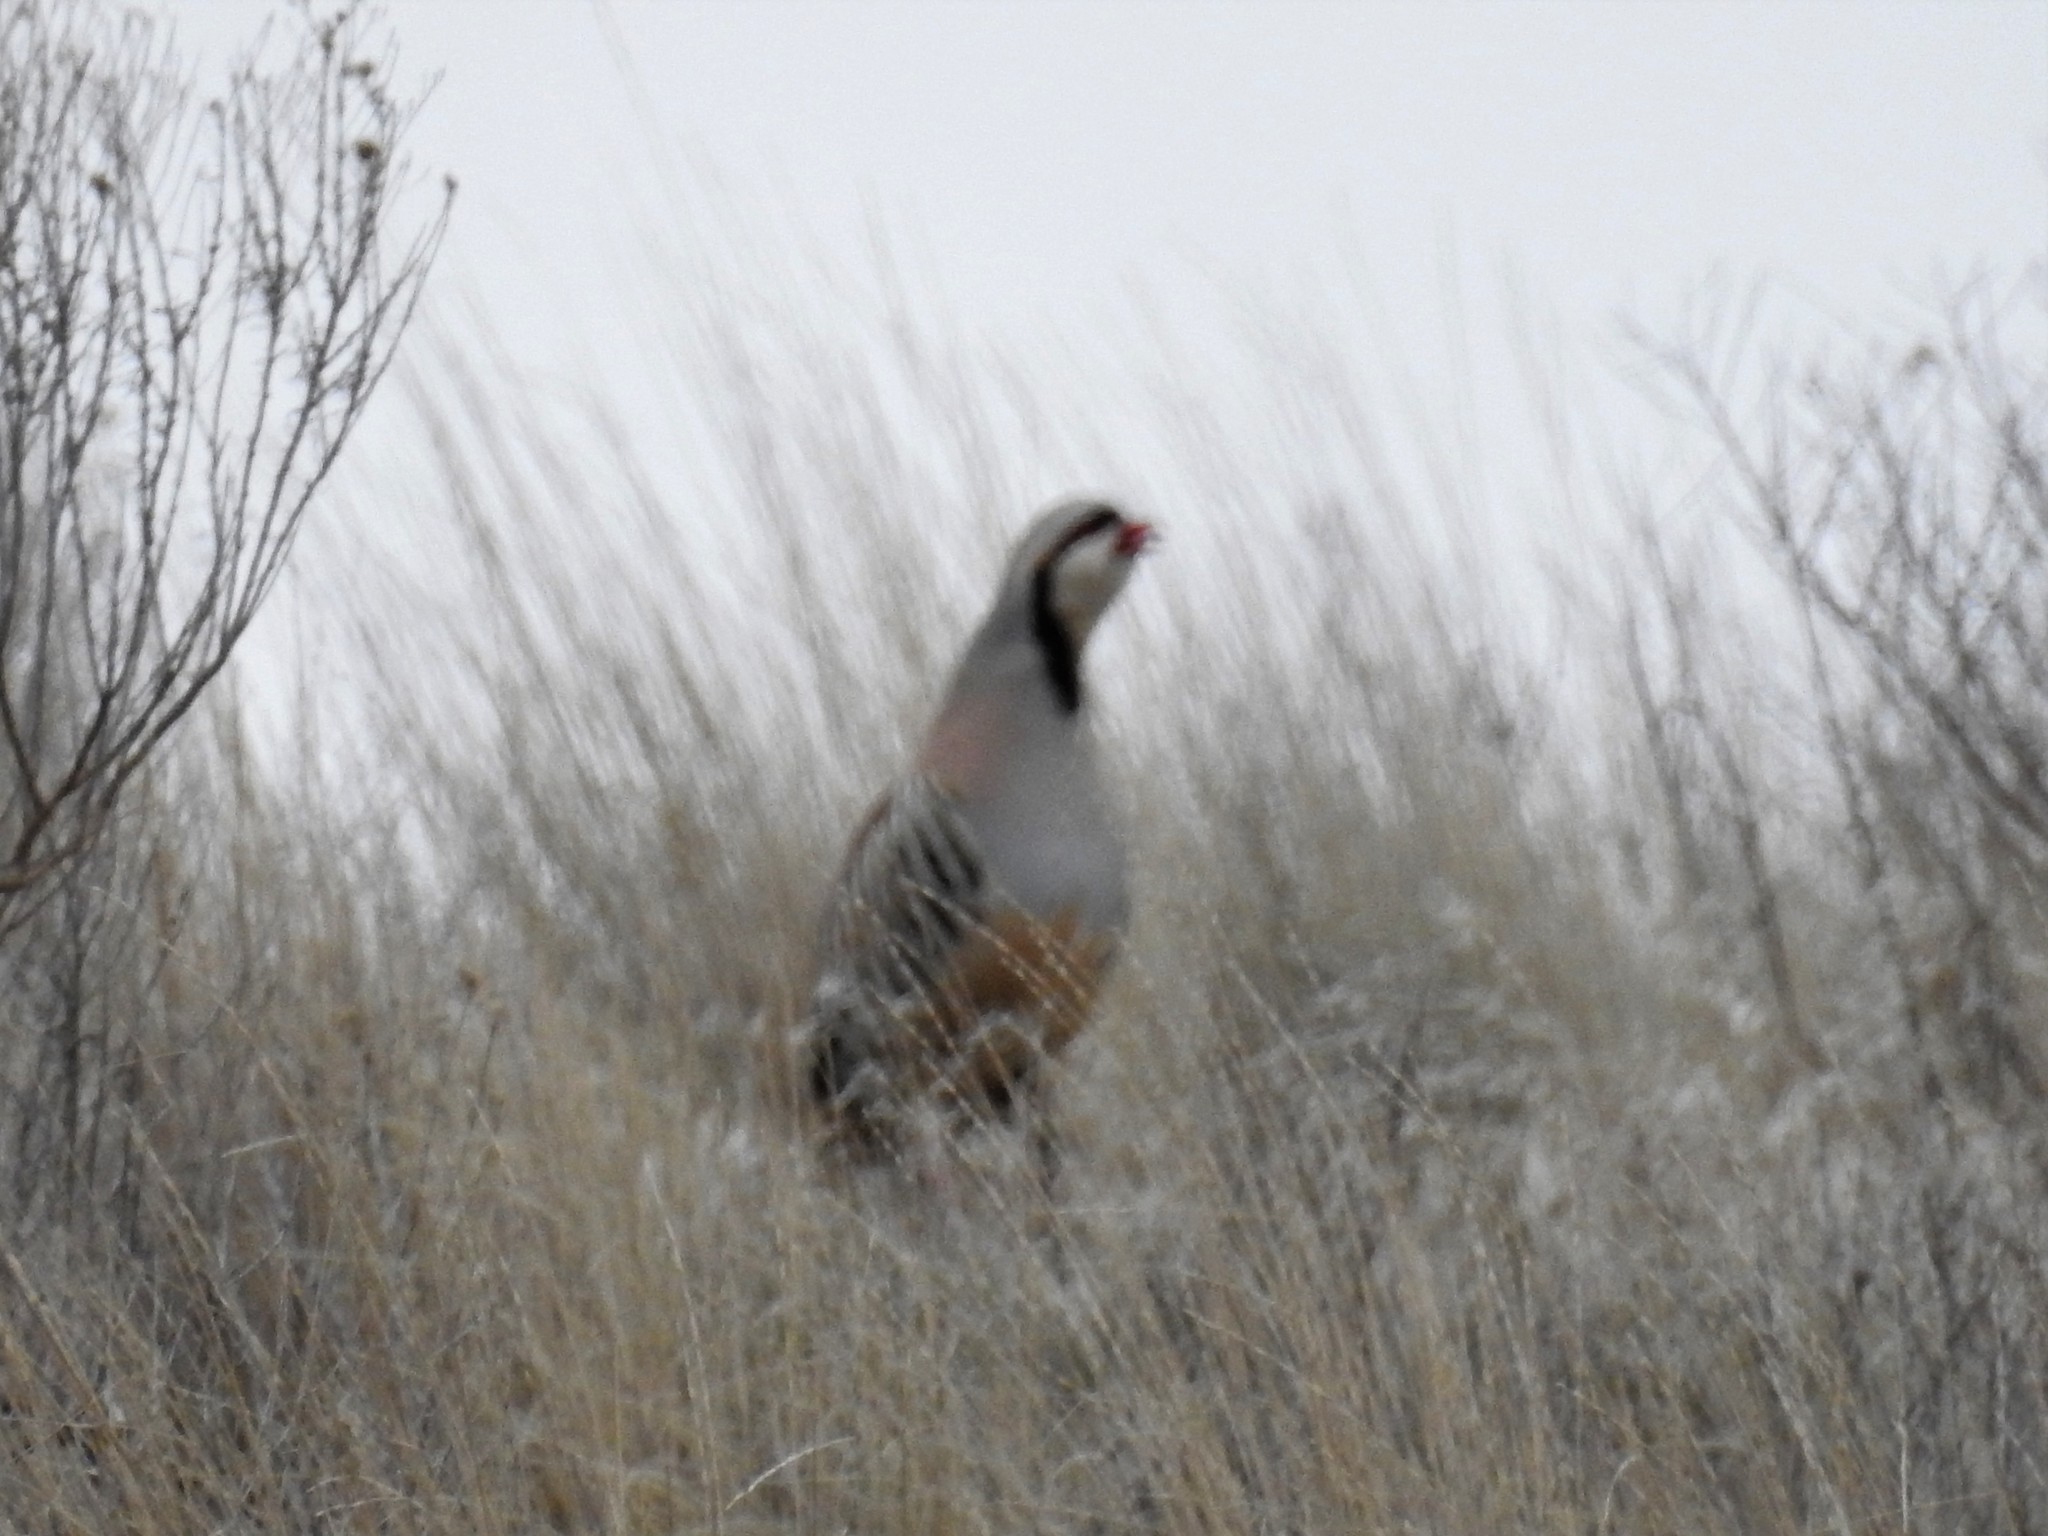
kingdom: Animalia
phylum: Chordata
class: Aves
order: Galliformes
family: Phasianidae
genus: Alectoris
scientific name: Alectoris chukar
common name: Chukar
